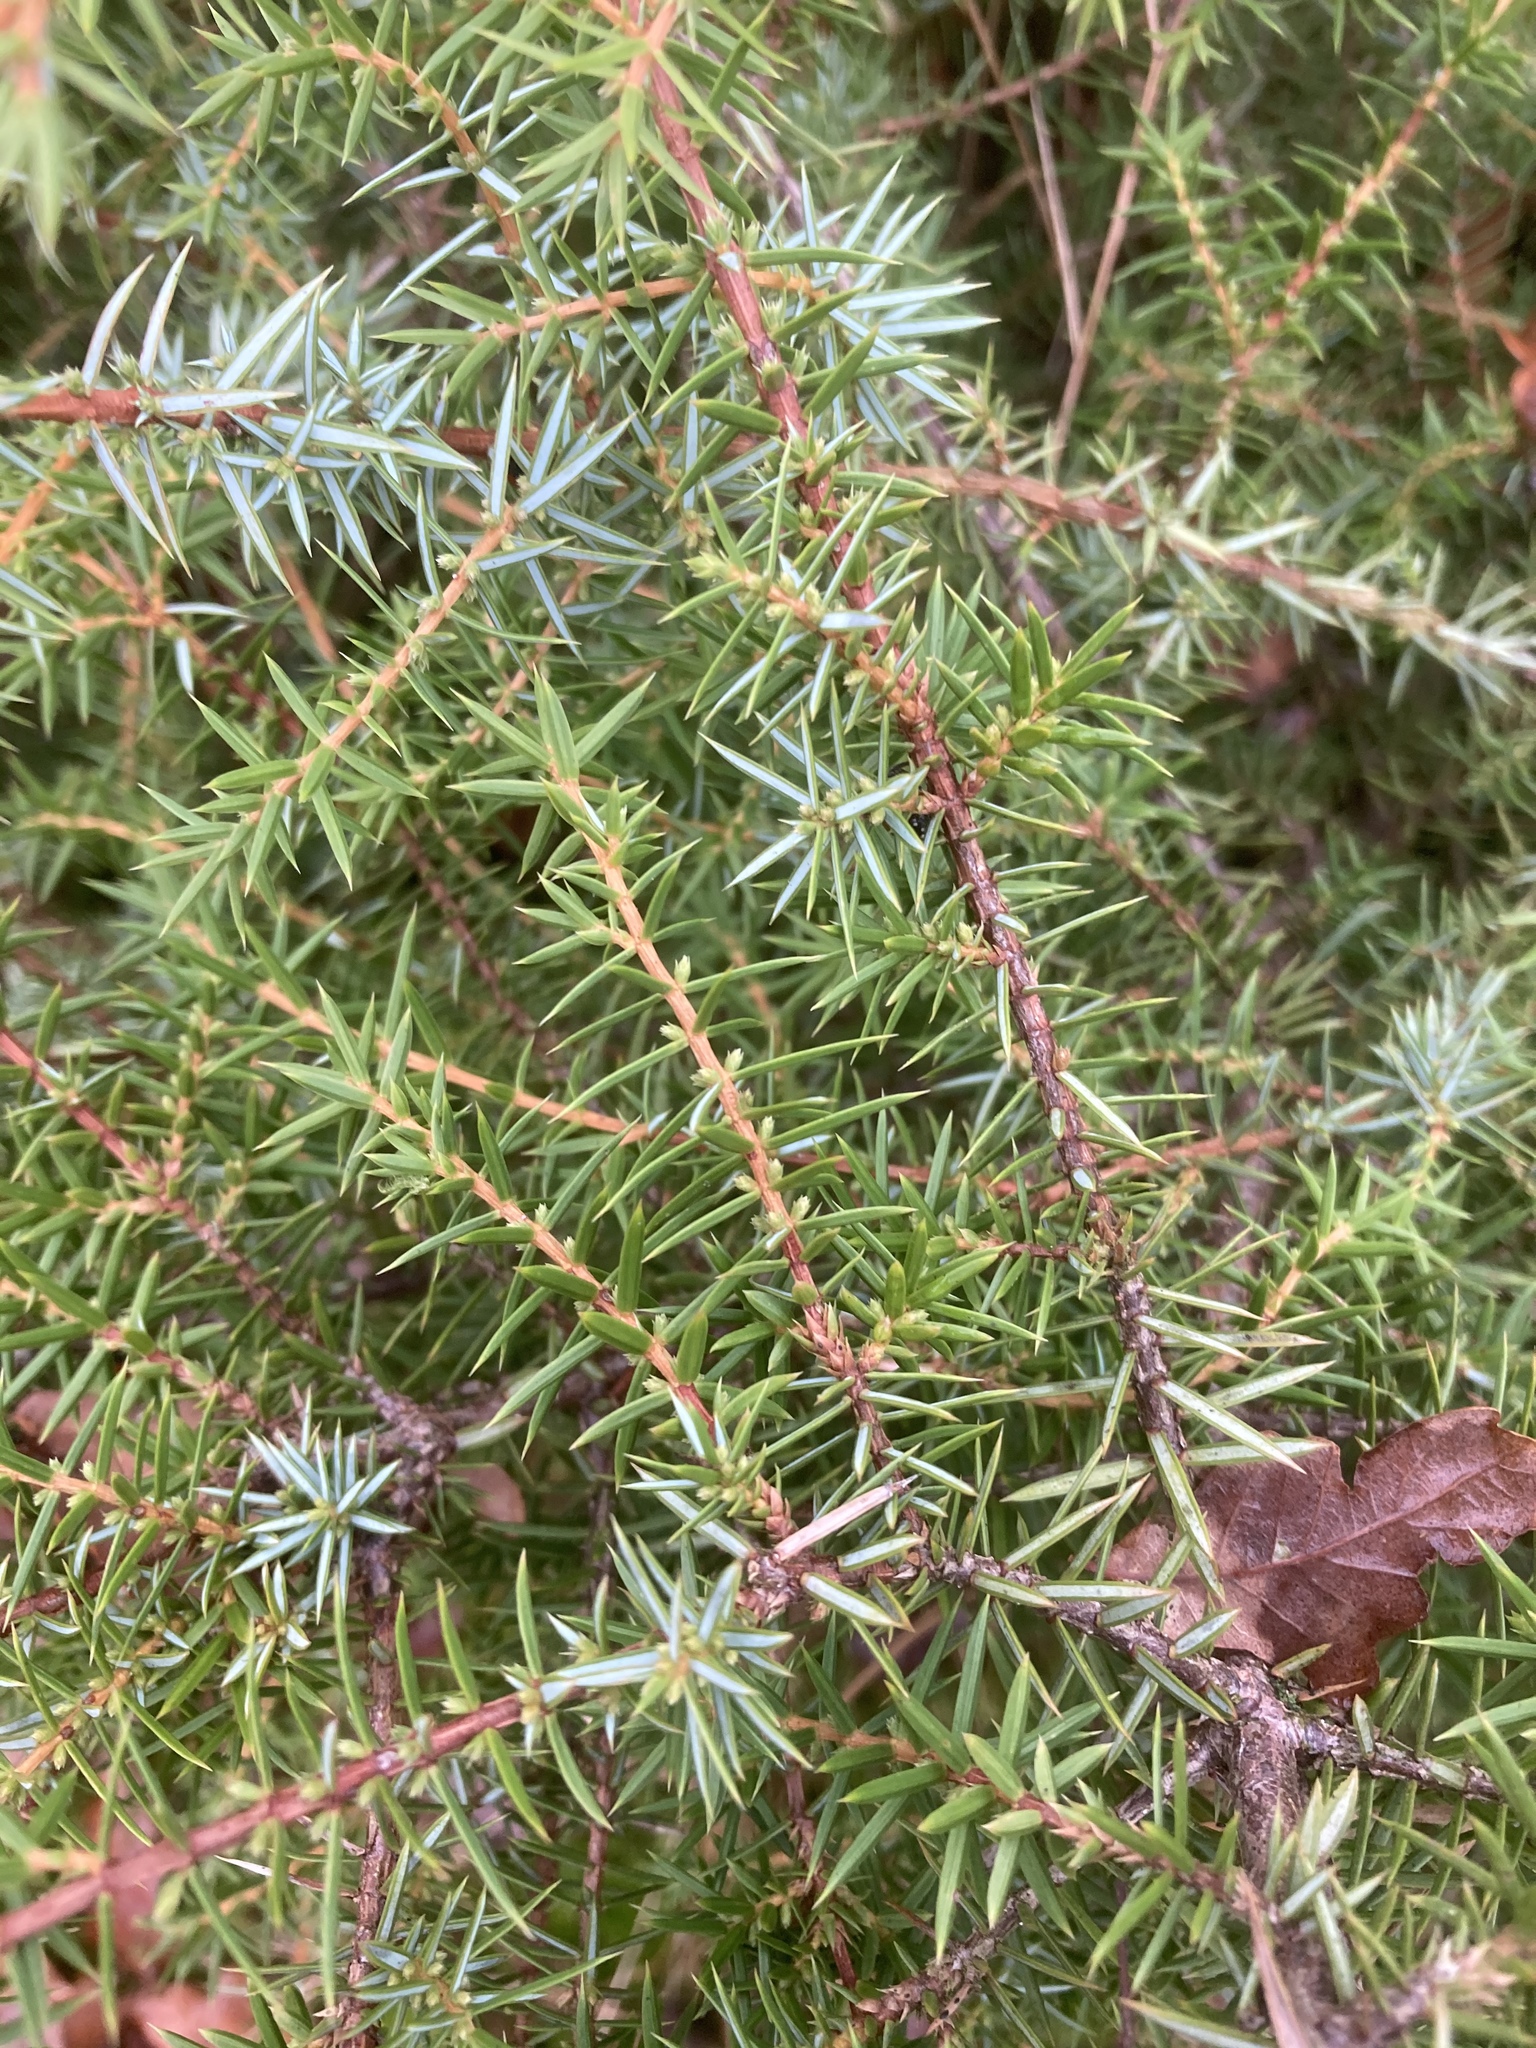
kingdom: Plantae
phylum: Tracheophyta
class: Pinopsida
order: Pinales
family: Cupressaceae
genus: Juniperus
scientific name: Juniperus communis
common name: Common juniper
